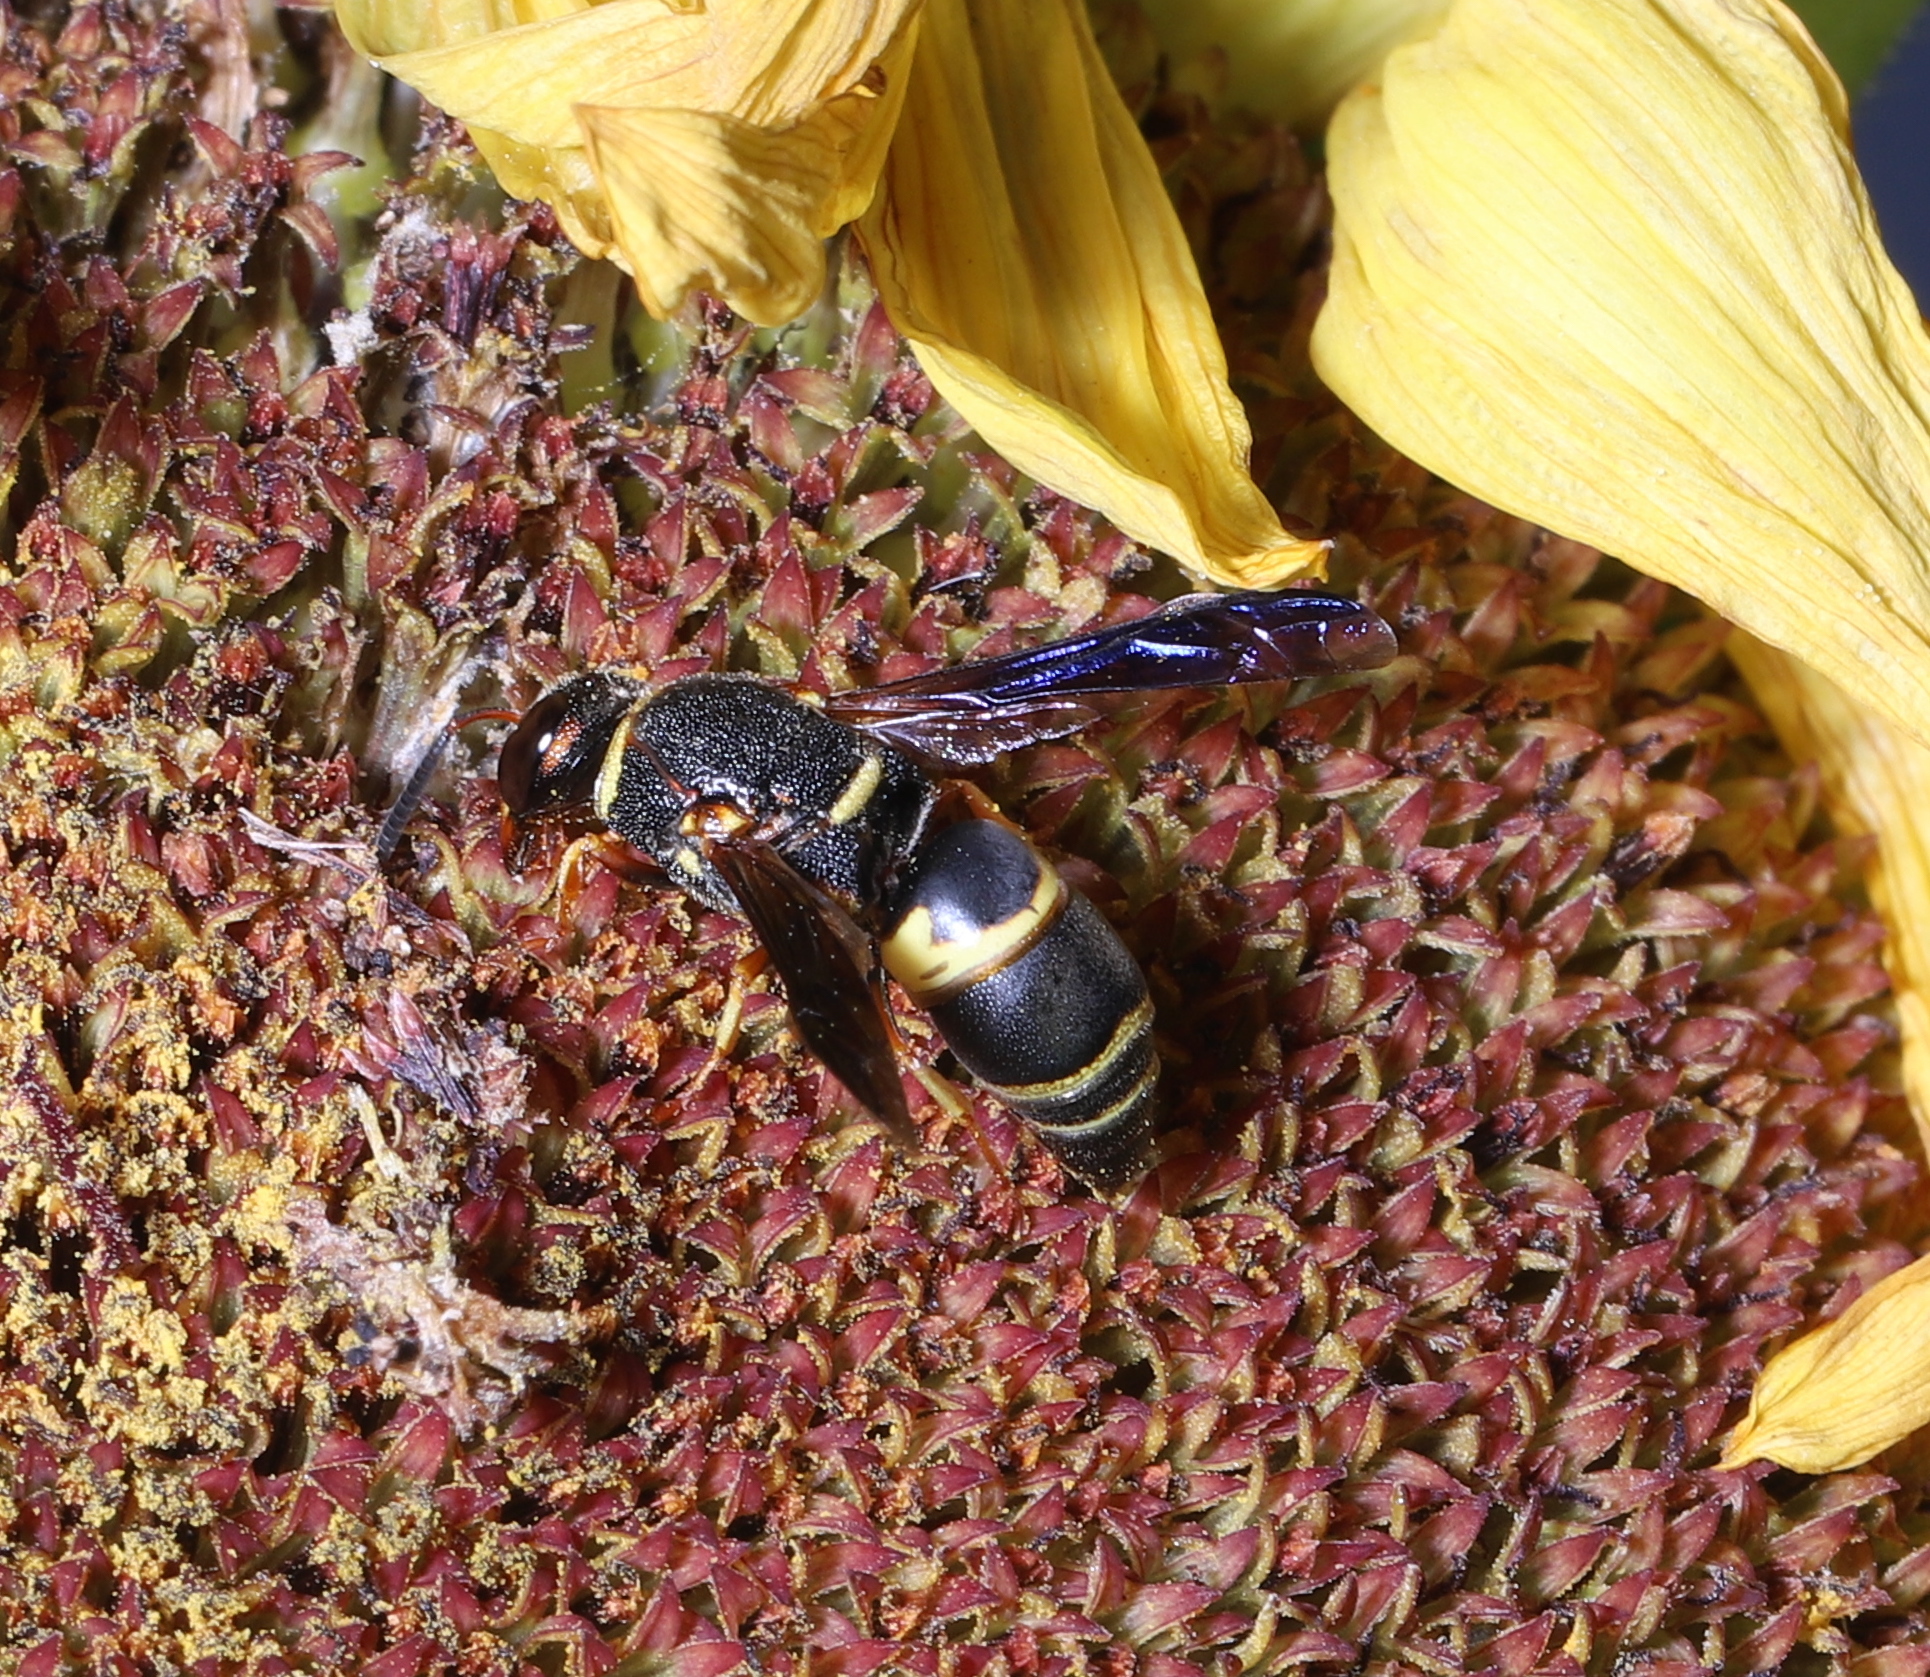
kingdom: Animalia
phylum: Arthropoda
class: Insecta
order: Hymenoptera
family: Eumenidae
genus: Euodynerus
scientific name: Euodynerus hidalgo
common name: Wasp
